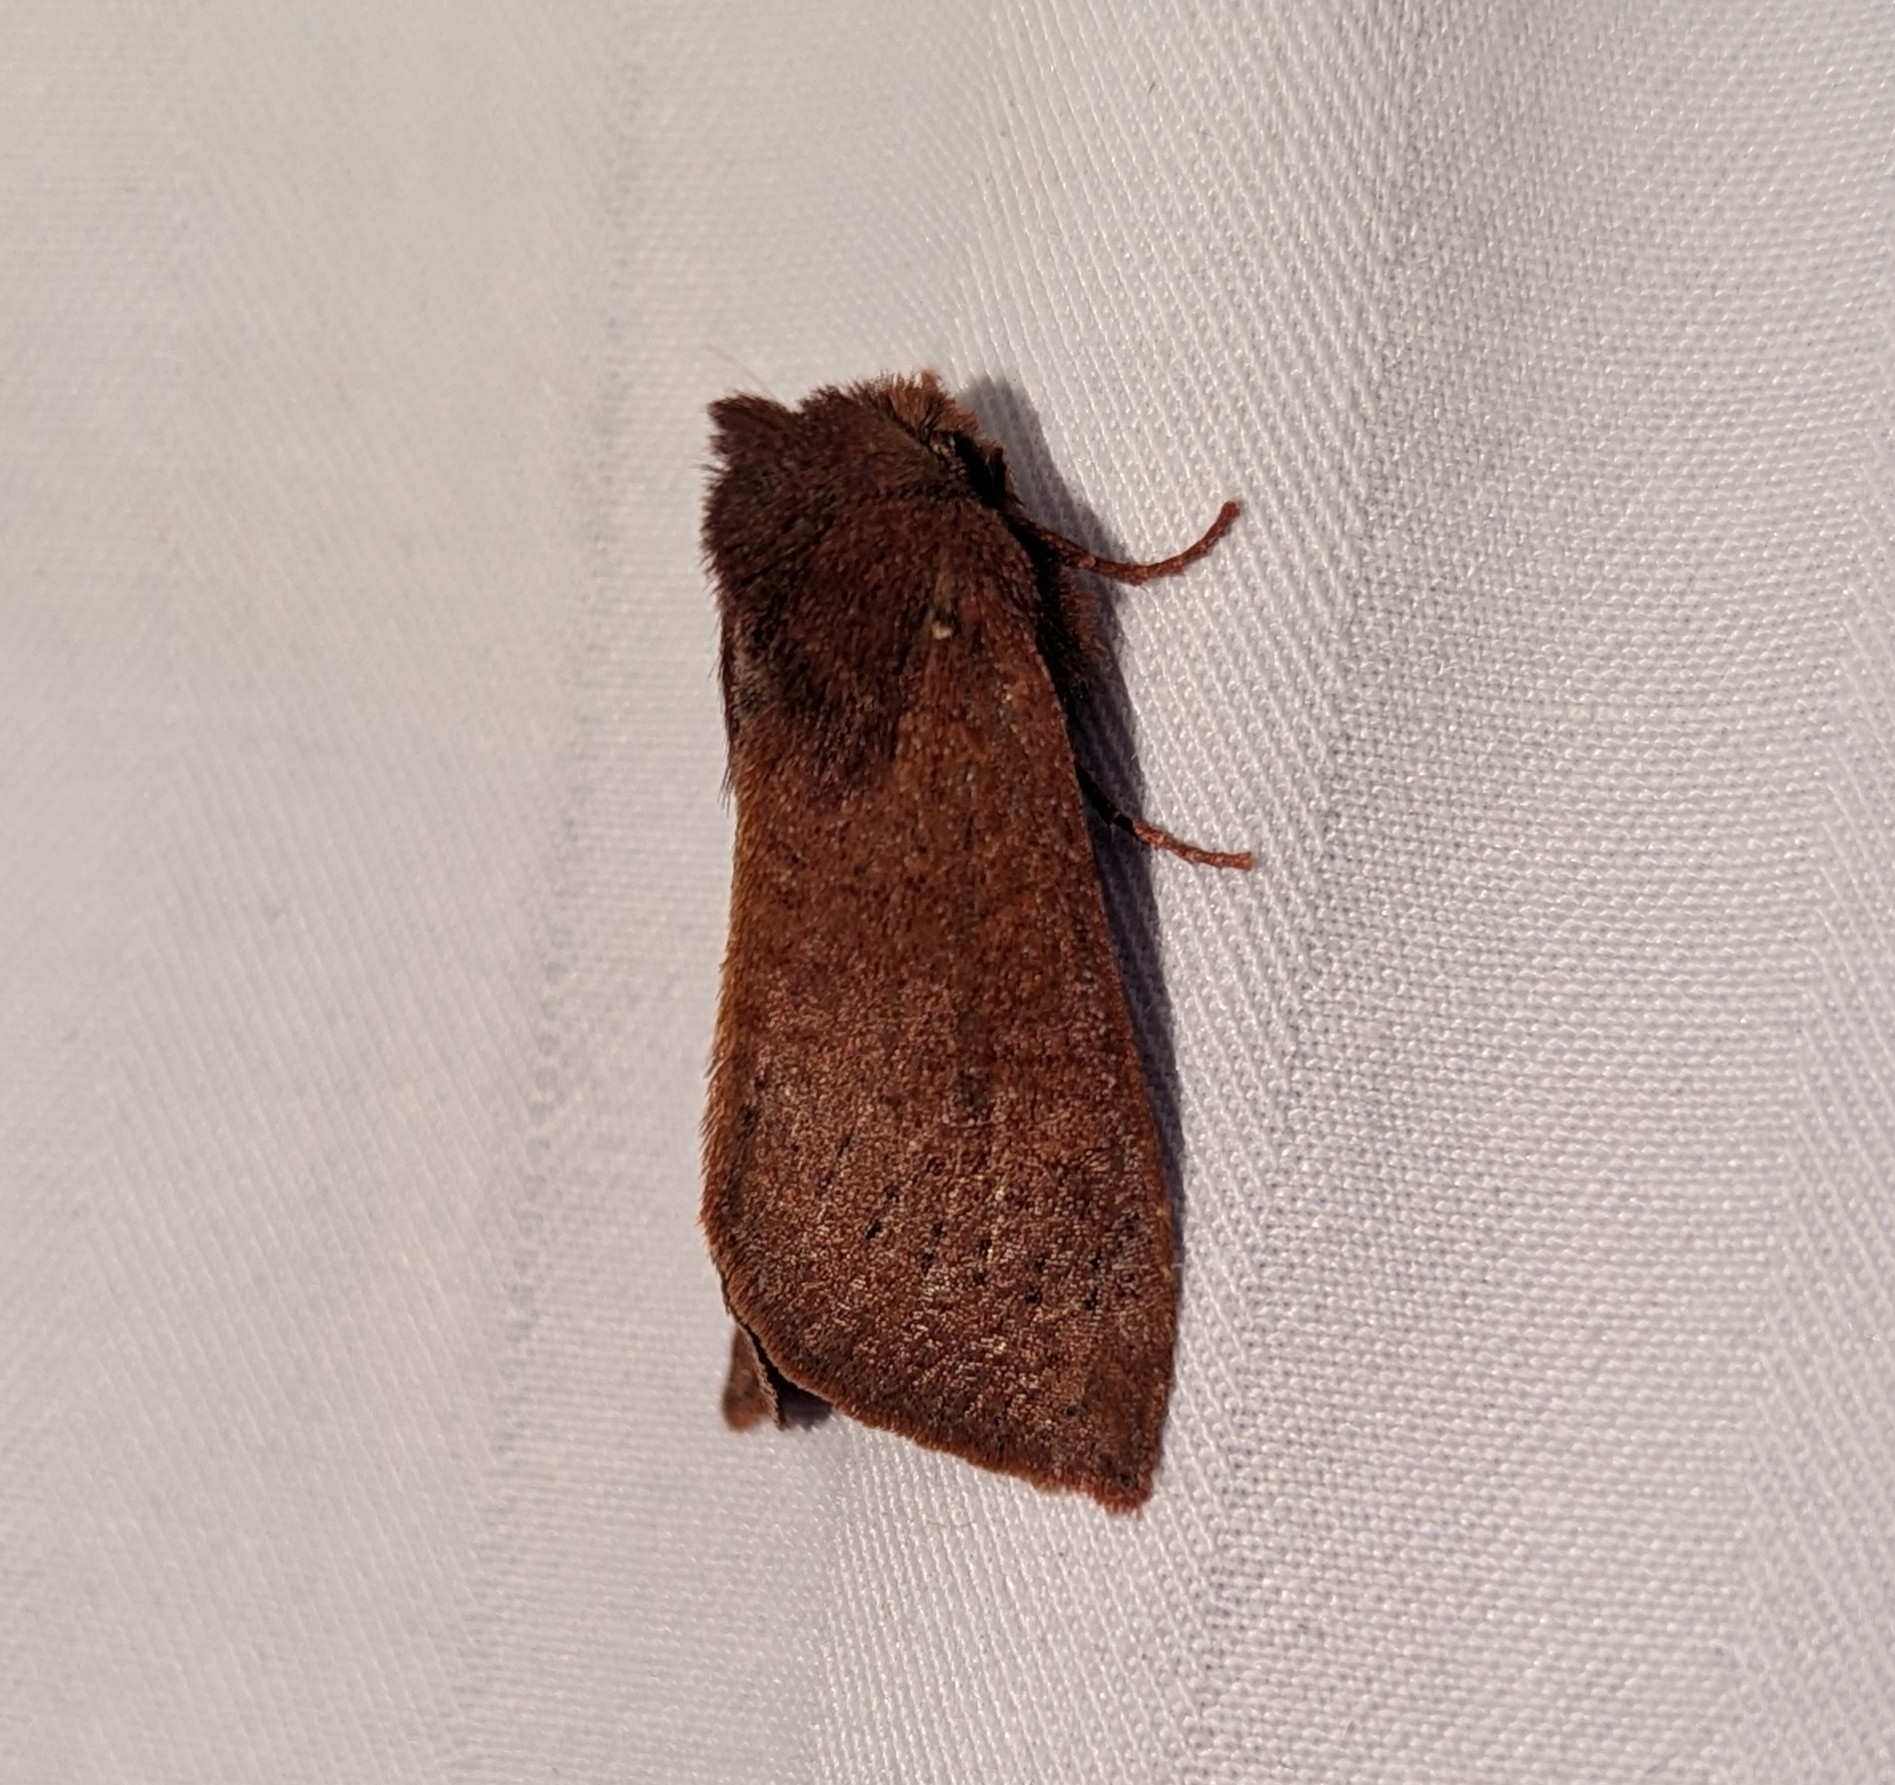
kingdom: Animalia
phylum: Arthropoda
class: Insecta
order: Lepidoptera
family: Noctuidae
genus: Orthosia
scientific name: Orthosia transparens
